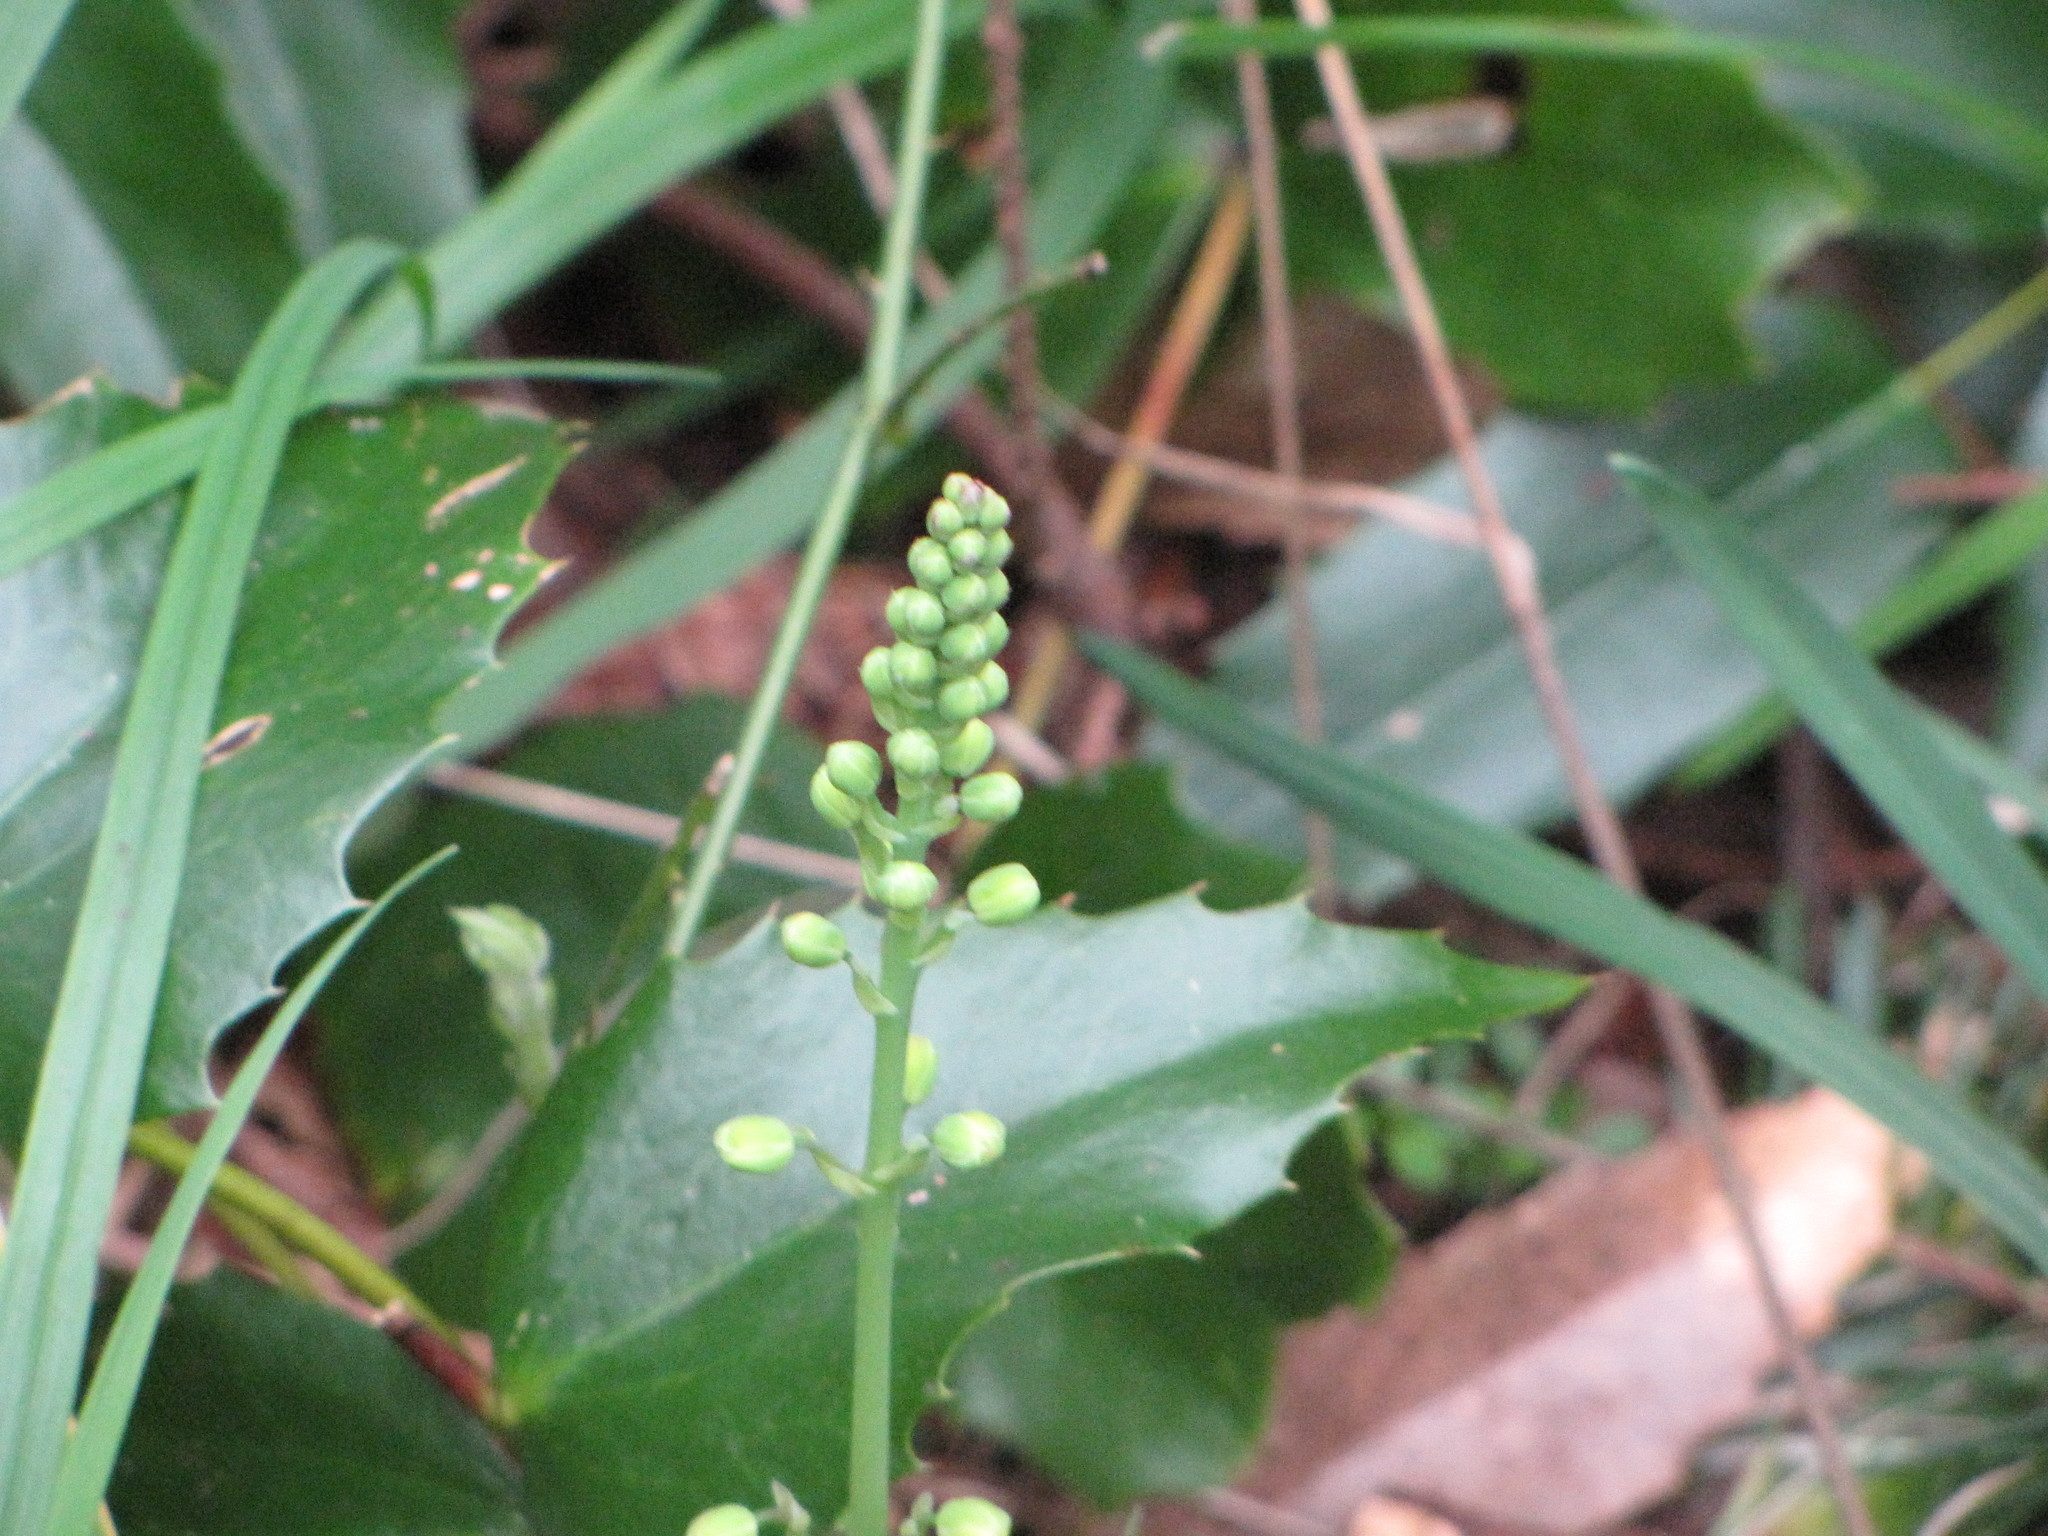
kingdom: Plantae
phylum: Tracheophyta
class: Magnoliopsida
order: Ranunculales
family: Berberidaceae
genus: Mahonia
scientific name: Mahonia nervosa
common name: Cascade oregon-grape
